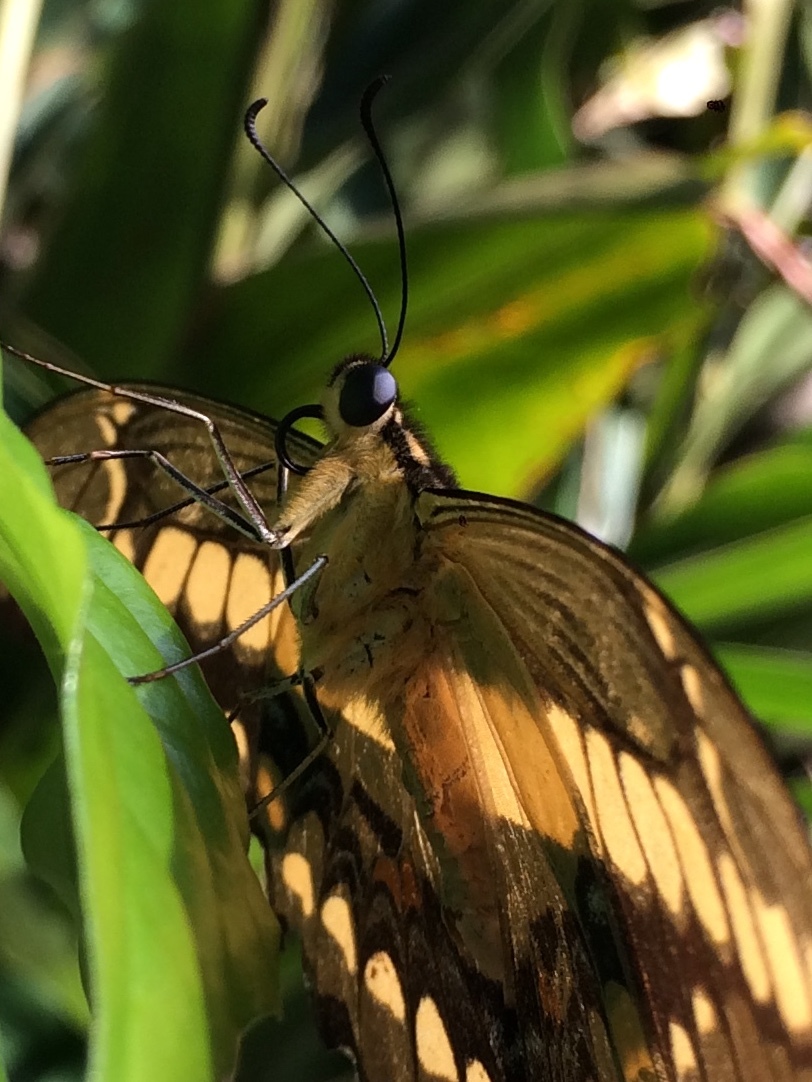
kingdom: Animalia
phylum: Arthropoda
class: Insecta
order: Lepidoptera
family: Papilionidae
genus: Papilio
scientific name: Papilio thoas
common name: King swallowtail
